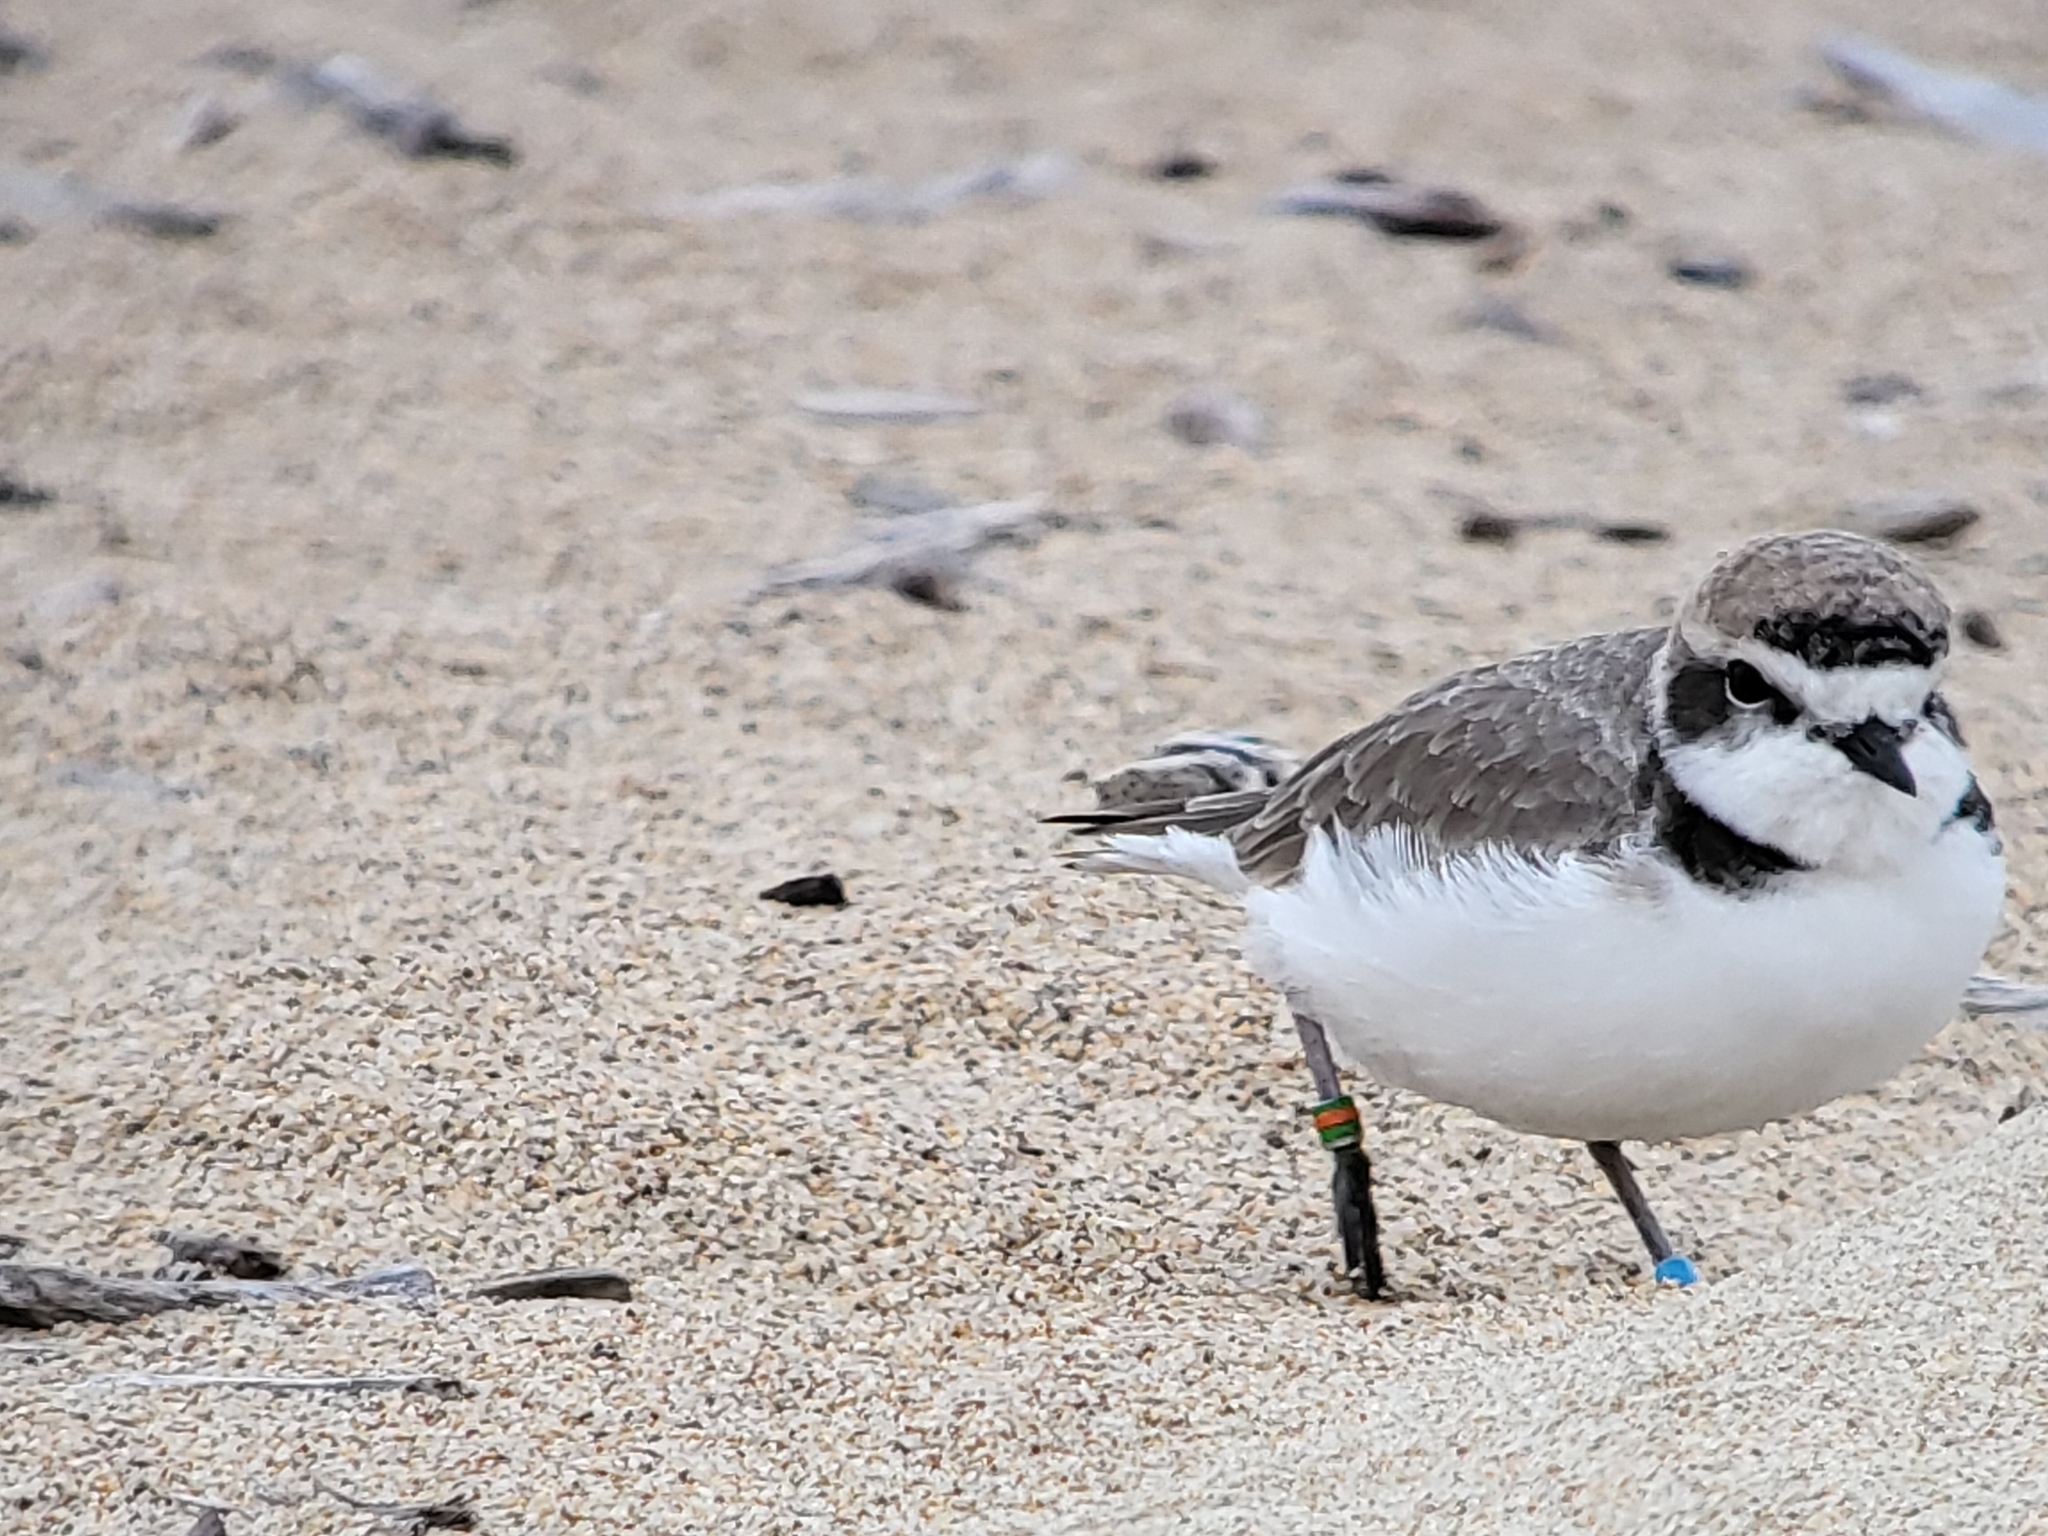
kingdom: Animalia
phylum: Chordata
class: Aves
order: Charadriiformes
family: Charadriidae
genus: Anarhynchus
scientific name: Anarhynchus
